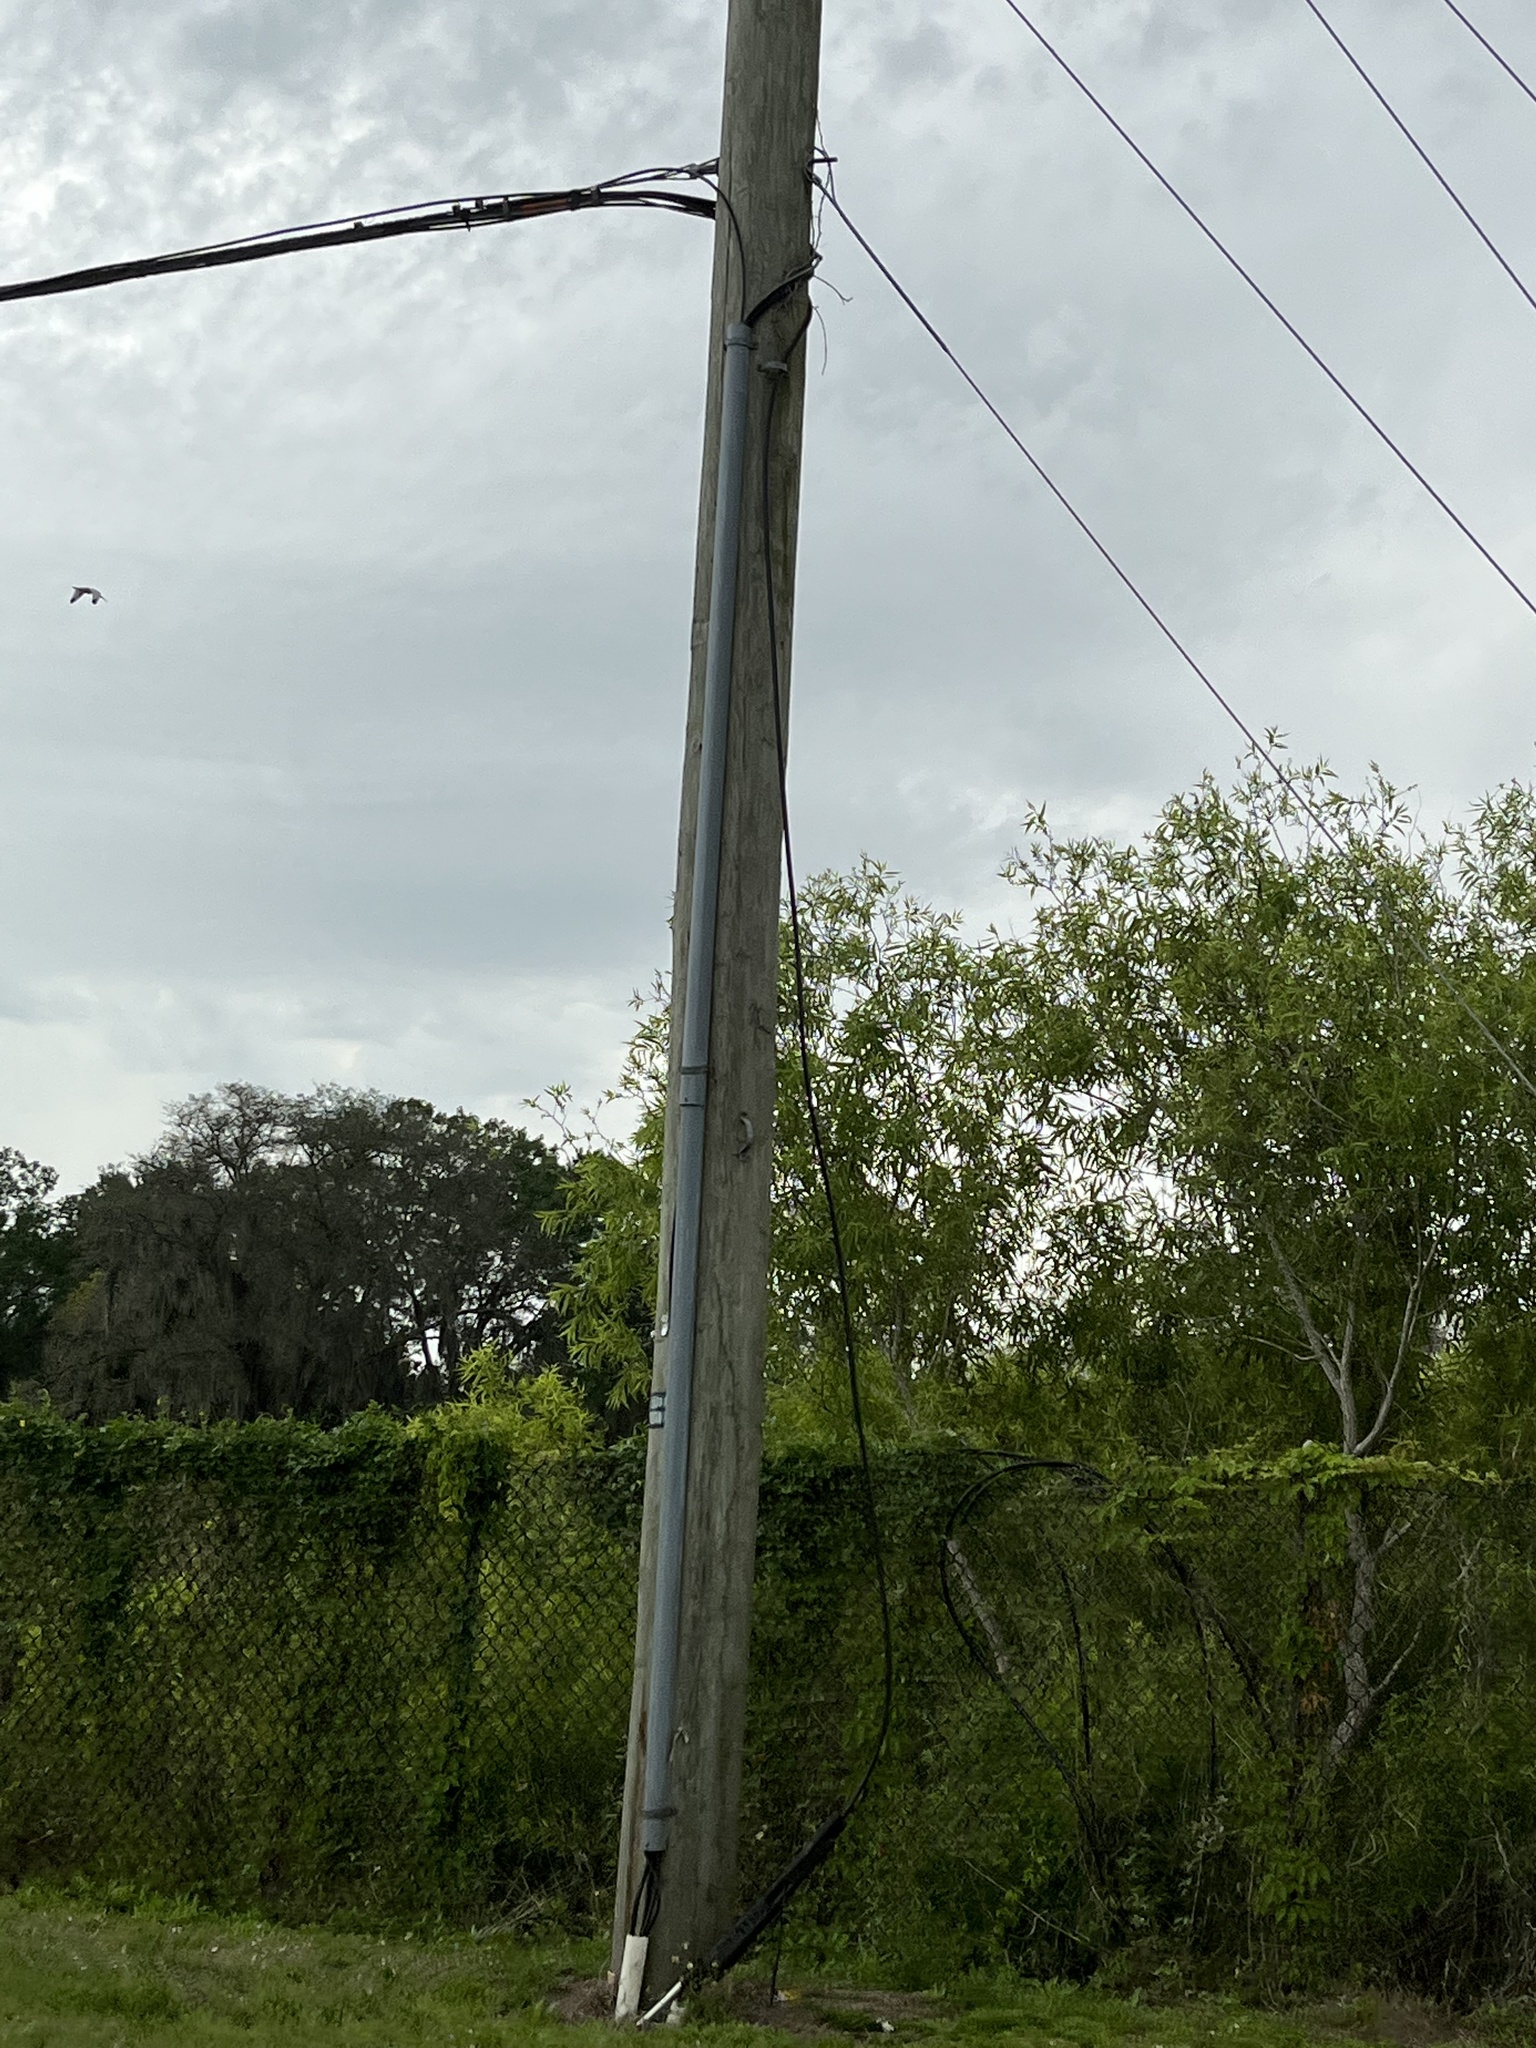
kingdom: Animalia
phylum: Chordata
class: Aves
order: Pelecaniformes
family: Threskiornithidae
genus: Eudocimus
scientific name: Eudocimus albus
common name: White ibis
